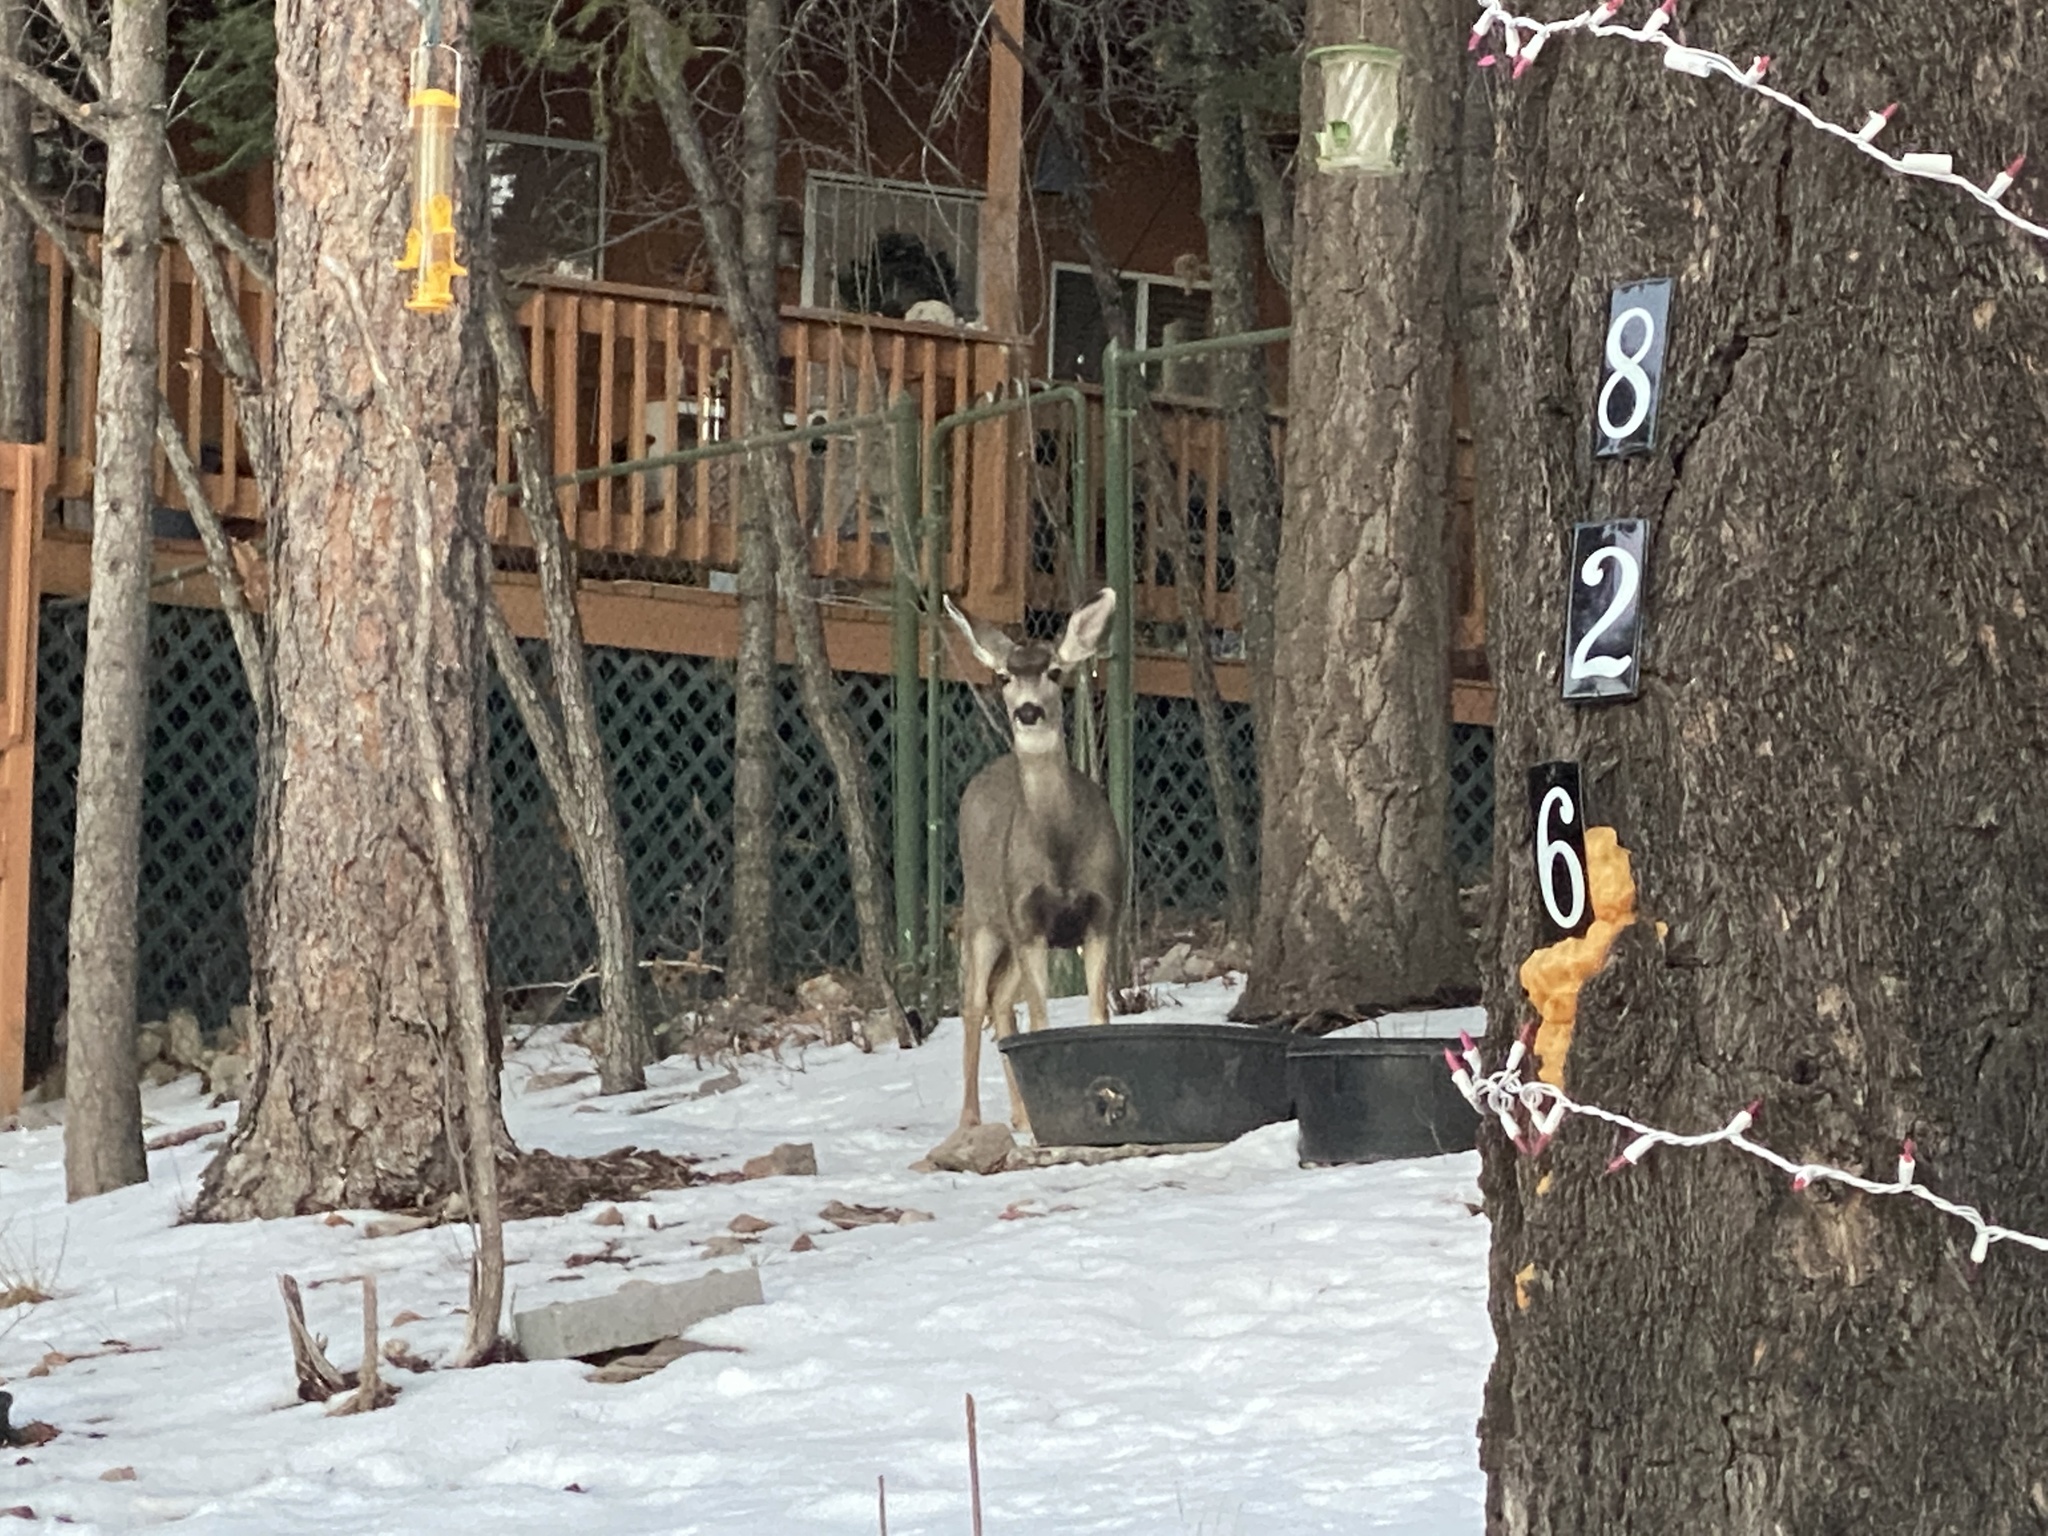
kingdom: Animalia
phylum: Chordata
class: Mammalia
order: Artiodactyla
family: Cervidae
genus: Odocoileus
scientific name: Odocoileus hemionus
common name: Mule deer
